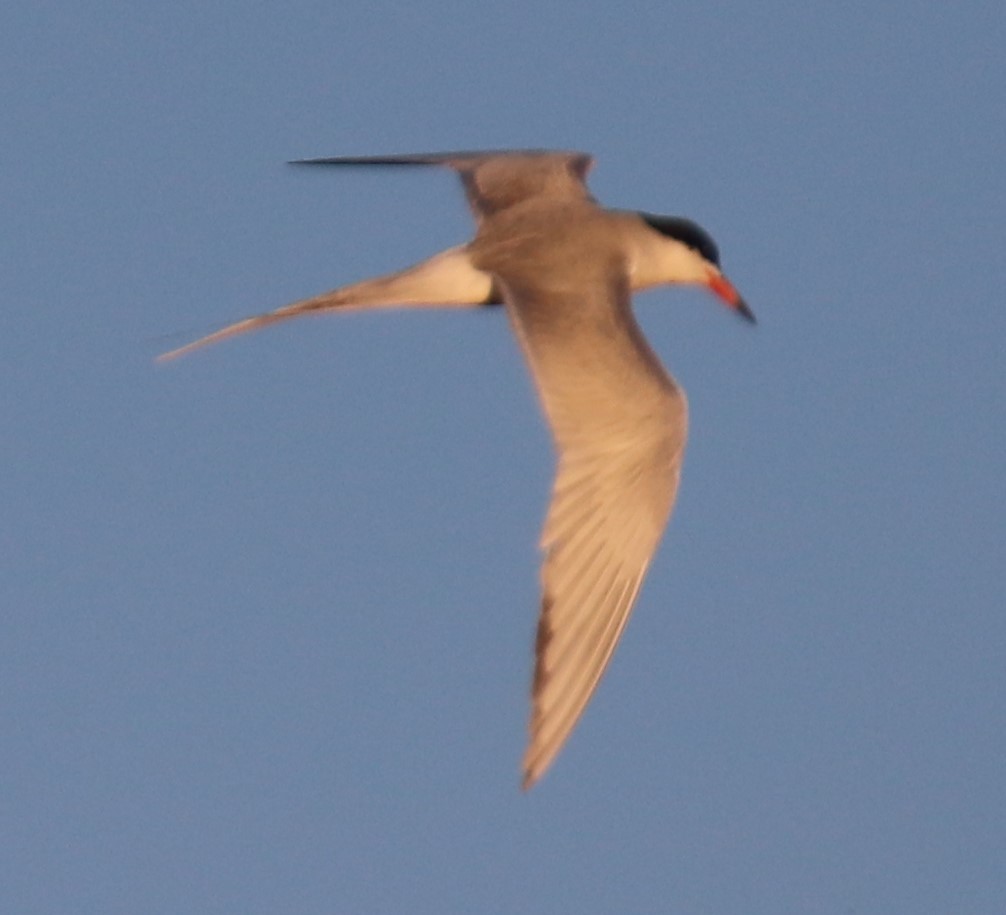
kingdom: Animalia
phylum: Chordata
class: Aves
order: Charadriiformes
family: Laridae
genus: Sterna
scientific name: Sterna forsteri
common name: Forster's tern
